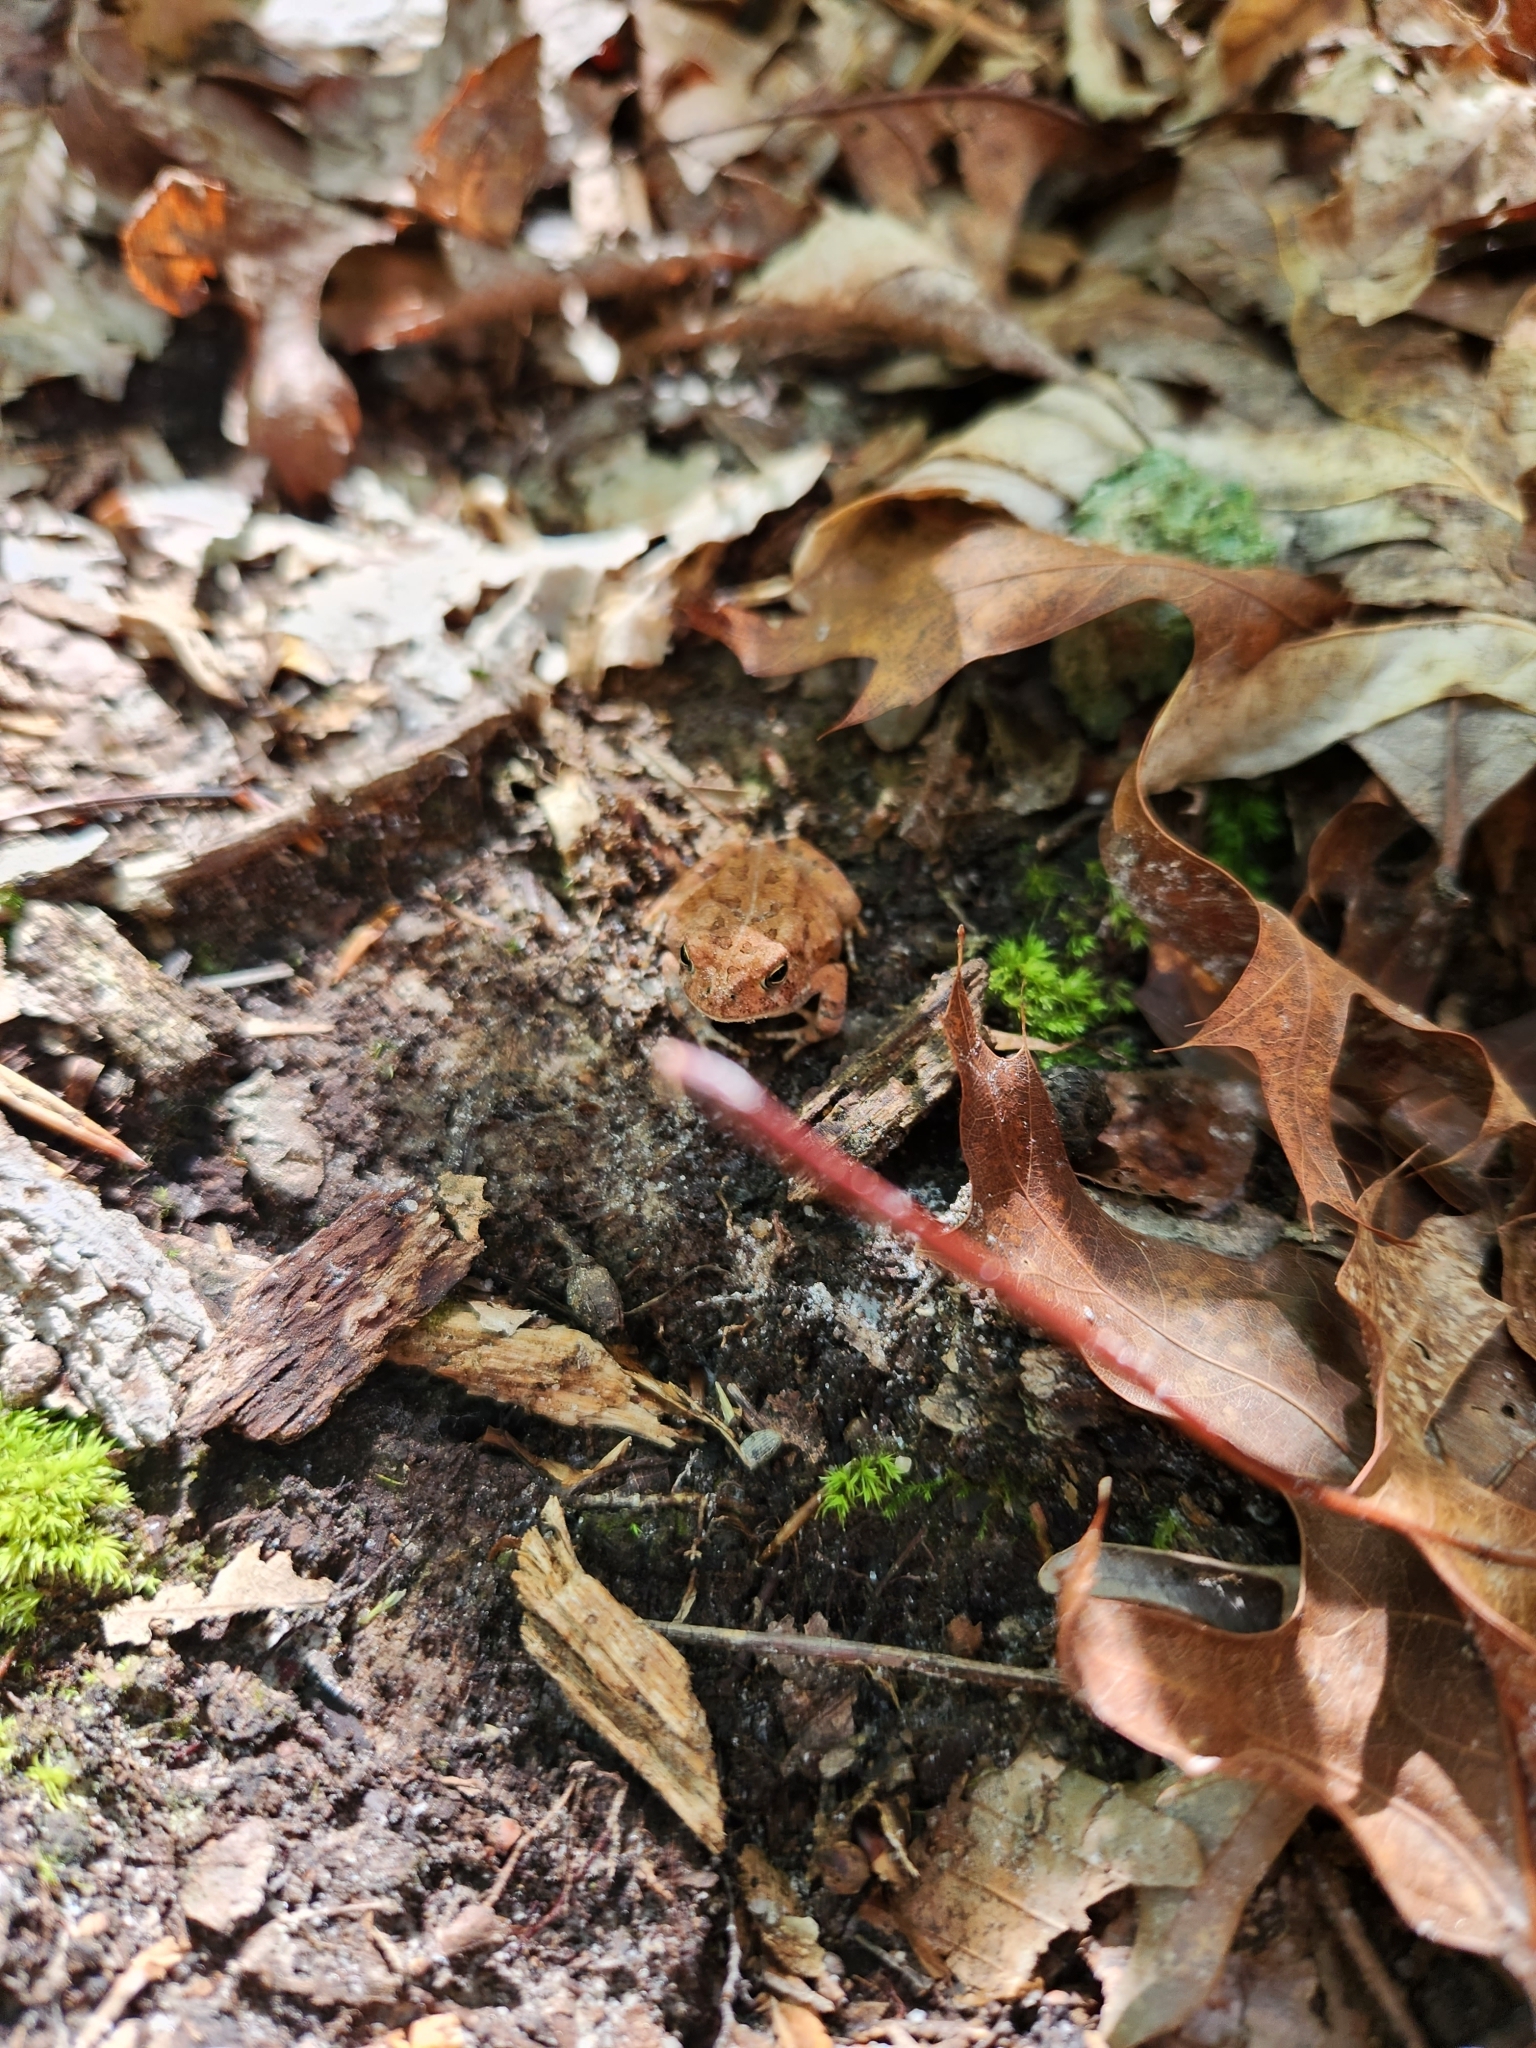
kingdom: Animalia
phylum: Chordata
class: Amphibia
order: Anura
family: Bufonidae
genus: Anaxyrus
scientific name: Anaxyrus fowleri
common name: Fowler's toad
